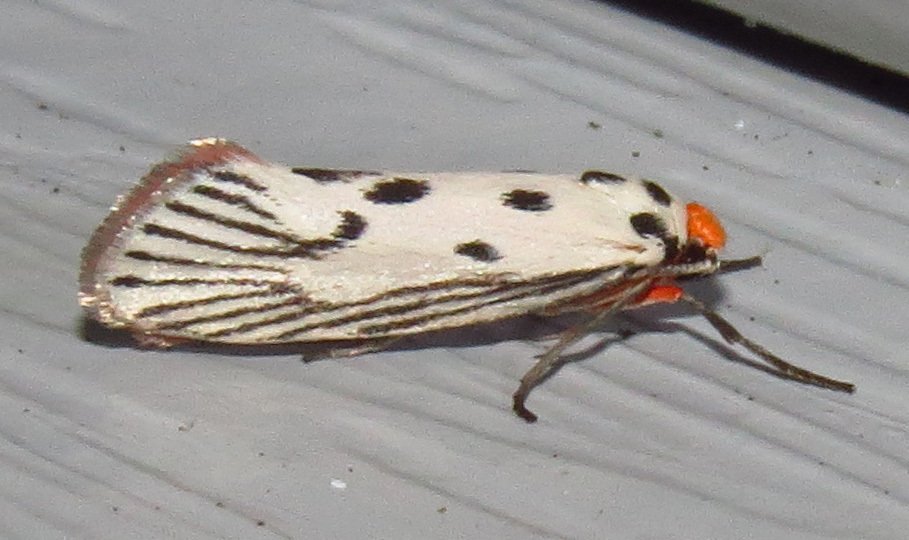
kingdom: Animalia
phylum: Arthropoda
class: Insecta
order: Lepidoptera
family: Lacturidae
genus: Lactura
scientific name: Lactura
